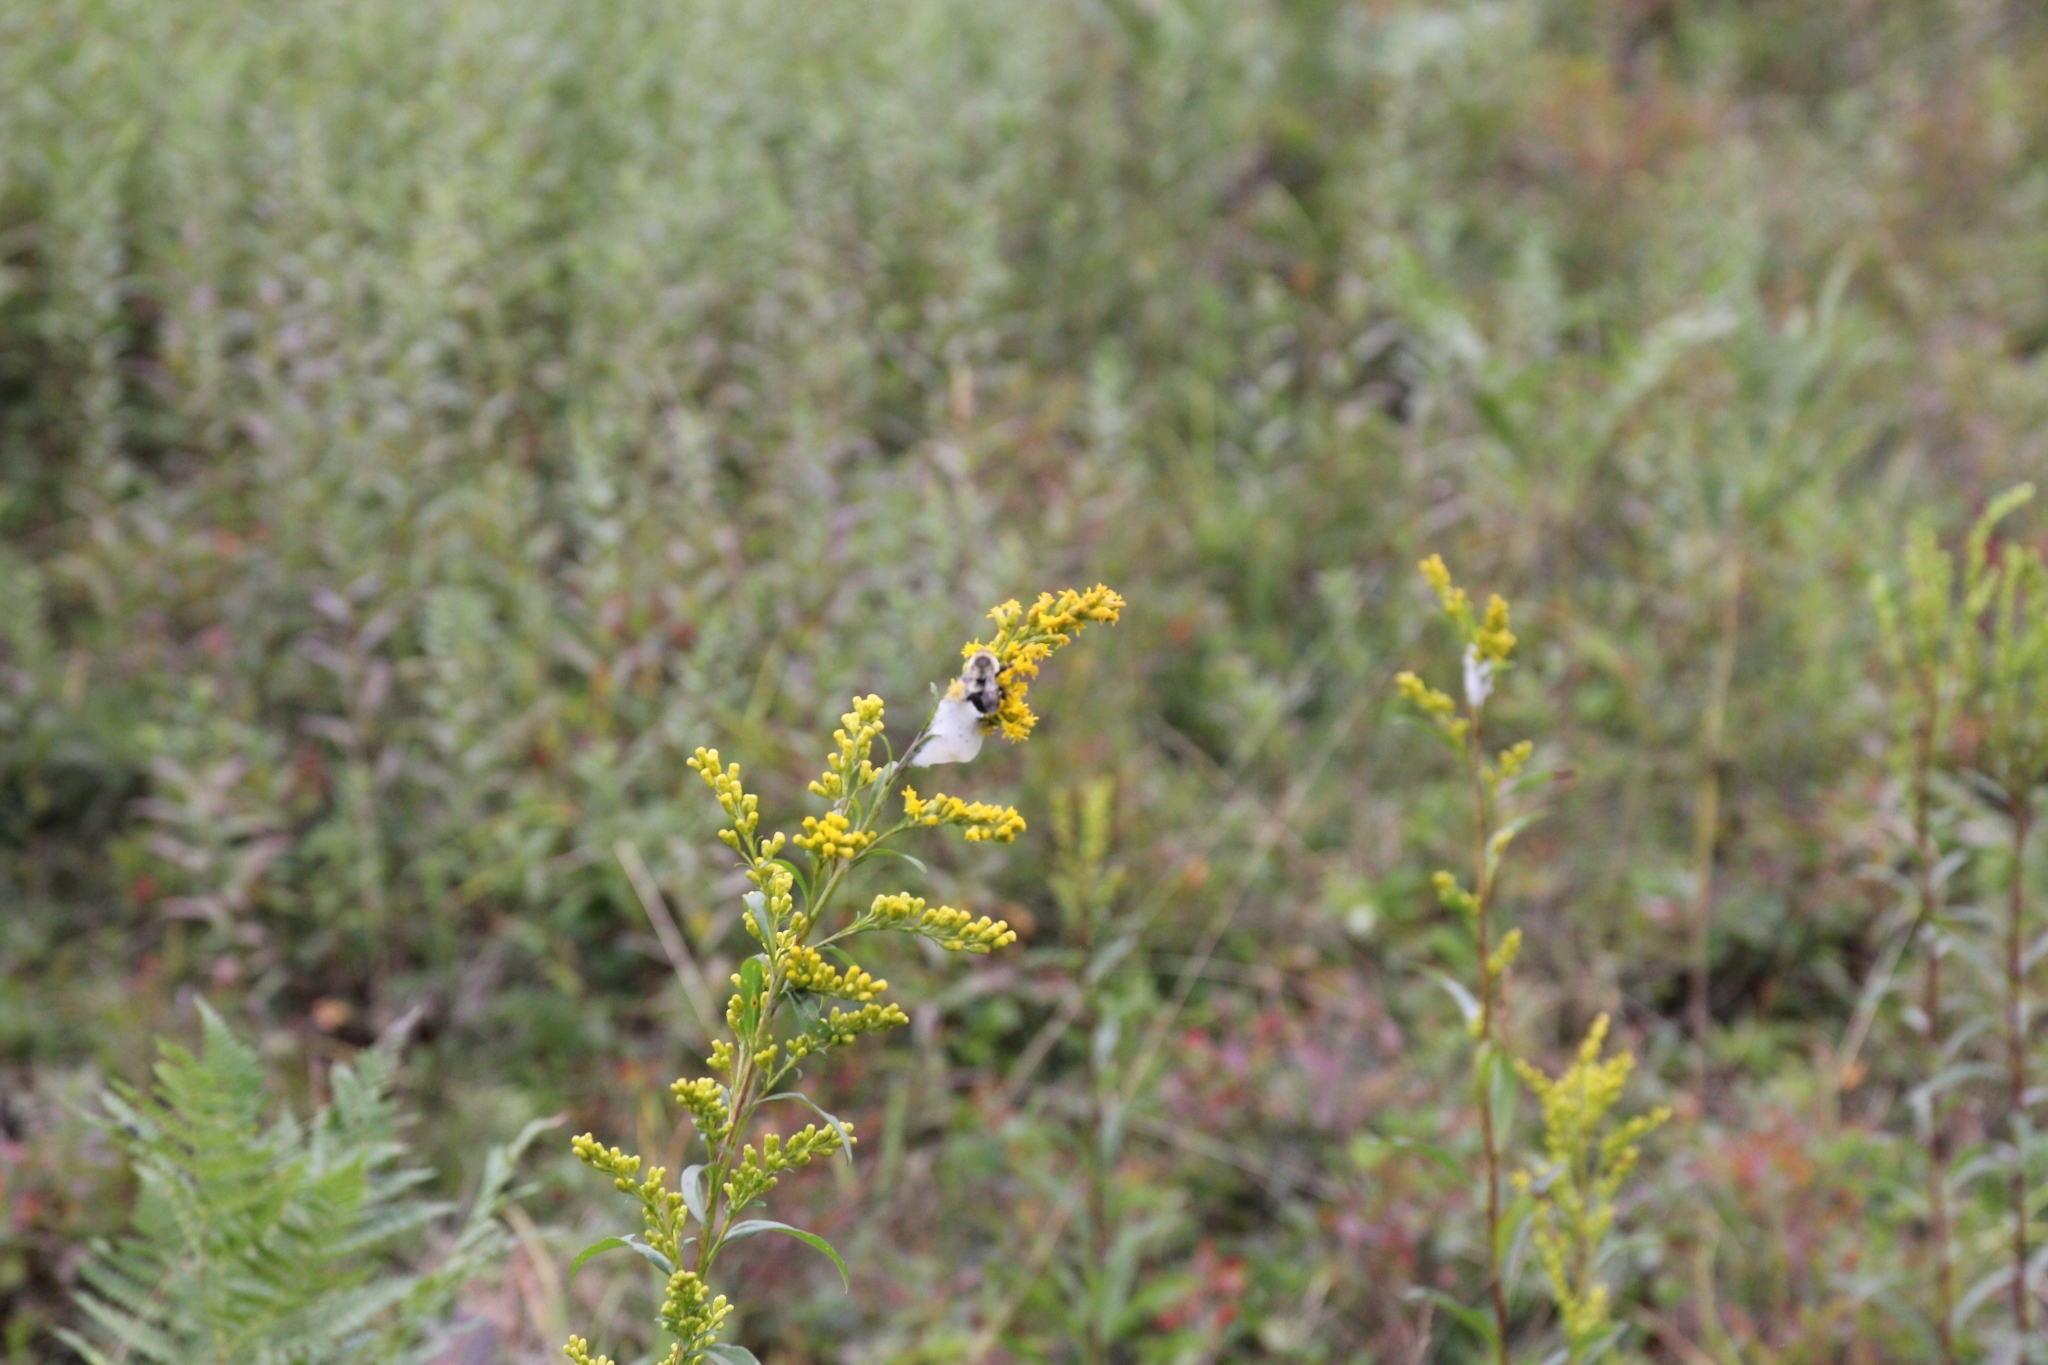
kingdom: Animalia
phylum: Arthropoda
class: Insecta
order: Hymenoptera
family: Apidae
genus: Bombus
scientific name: Bombus impatiens
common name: Common eastern bumble bee
